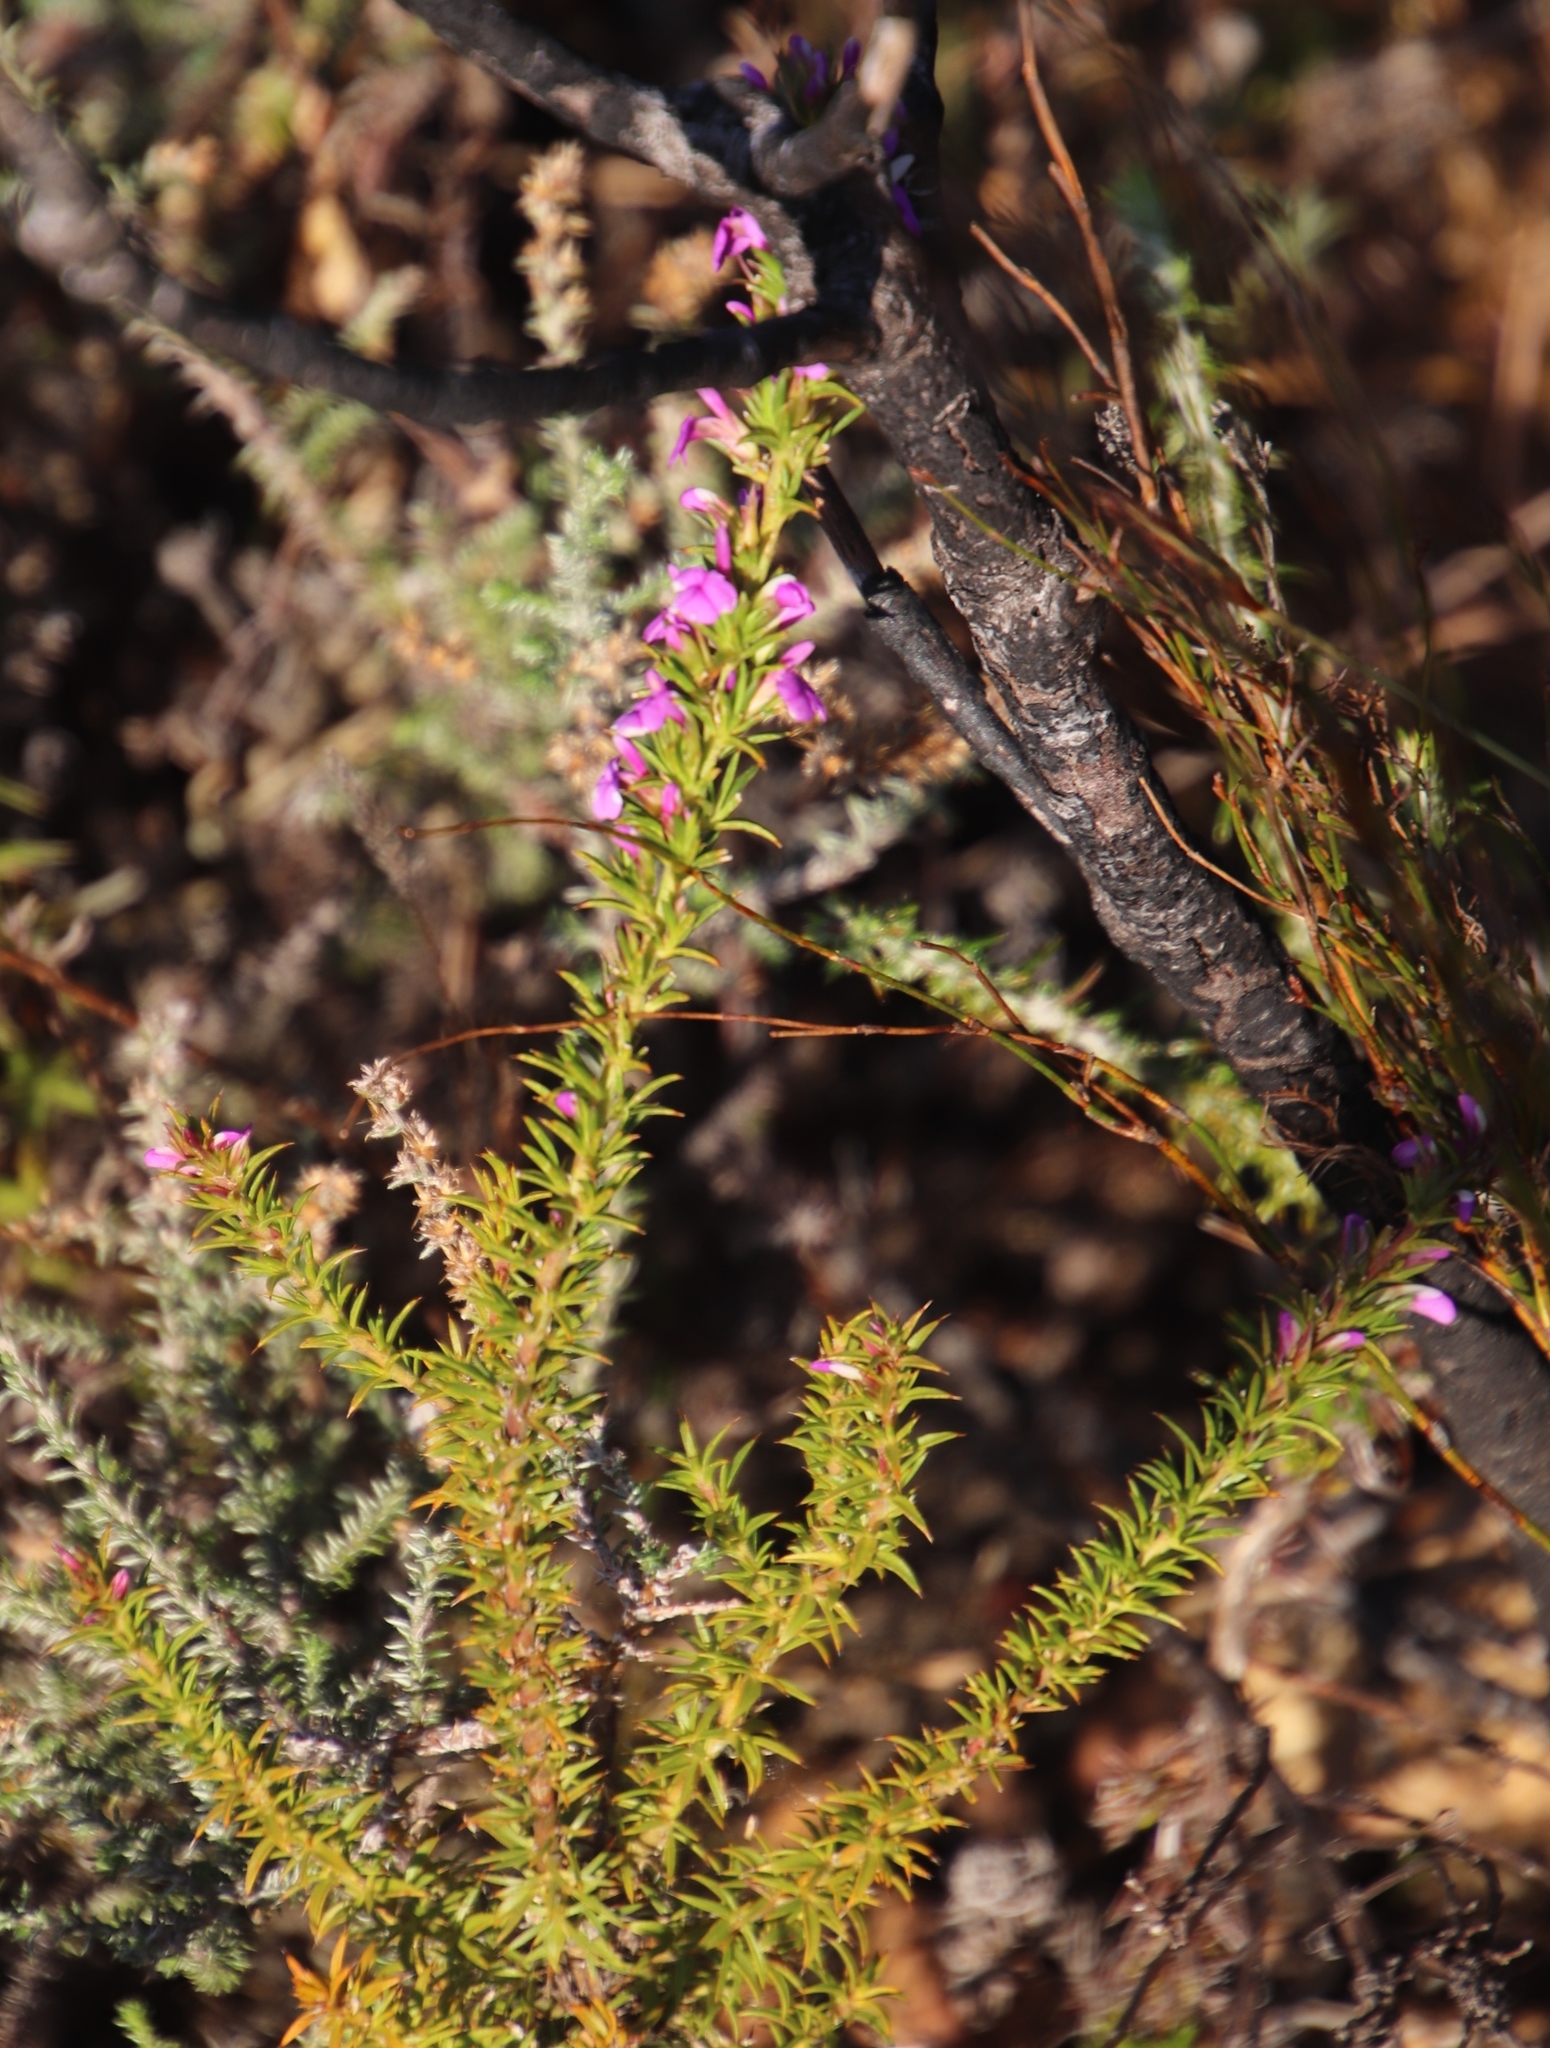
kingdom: Plantae
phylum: Tracheophyta
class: Magnoliopsida
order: Fabales
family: Polygalaceae
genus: Muraltia
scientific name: Muraltia heisteria
